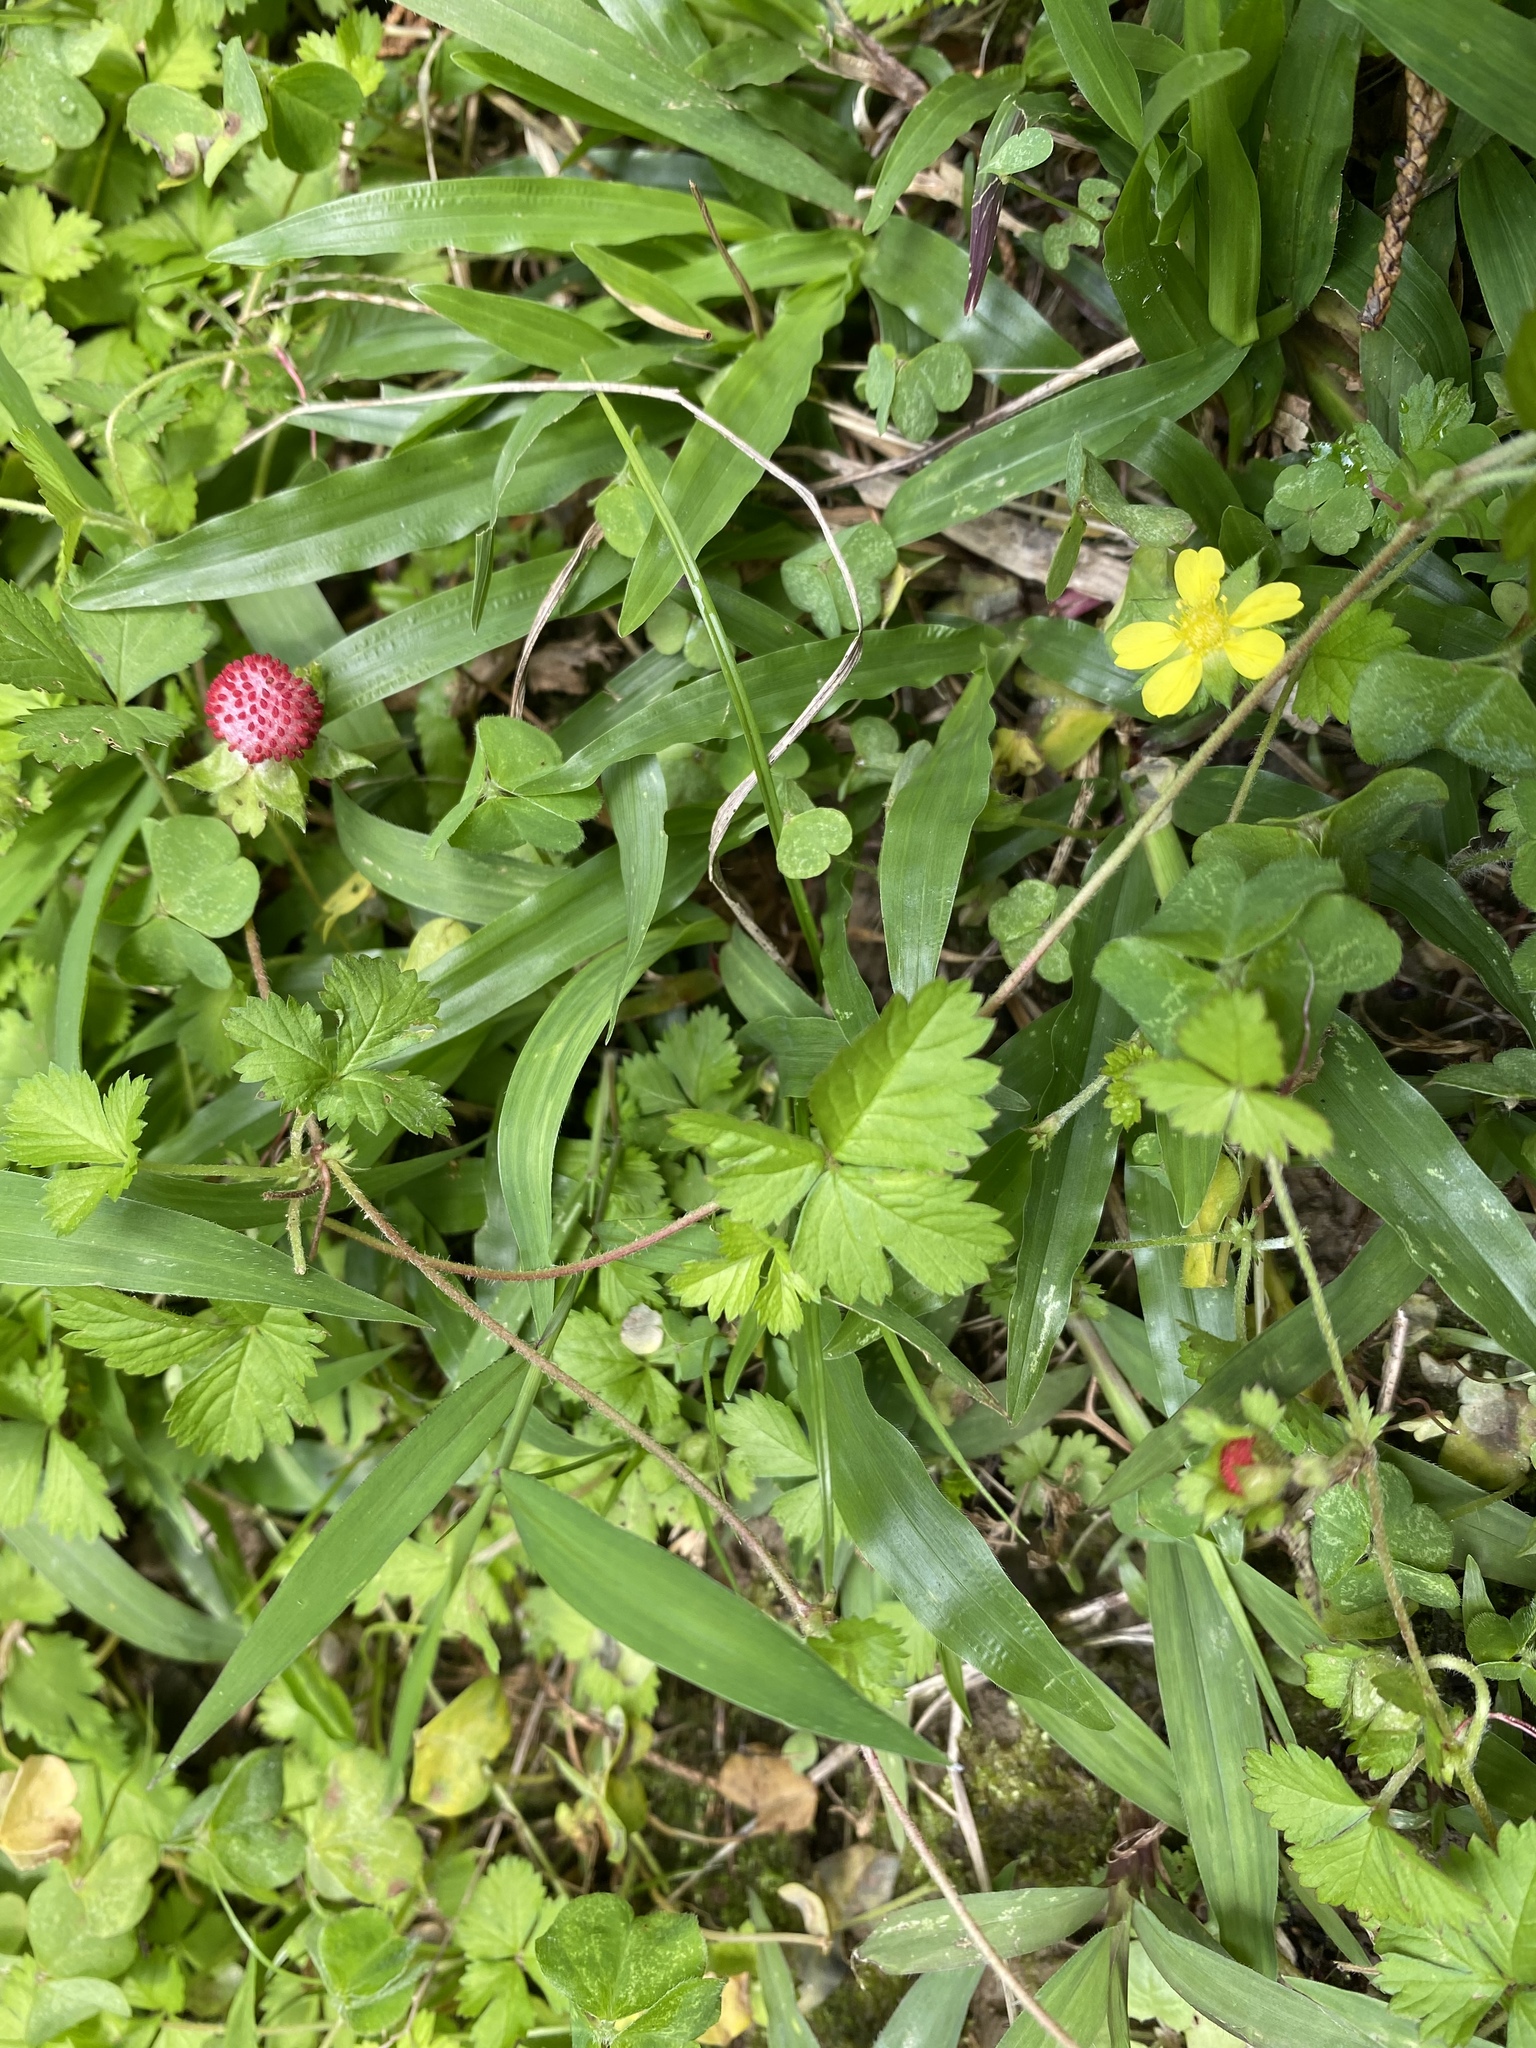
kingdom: Plantae
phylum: Tracheophyta
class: Magnoliopsida
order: Rosales
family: Rosaceae
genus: Potentilla
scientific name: Potentilla wallichiana
